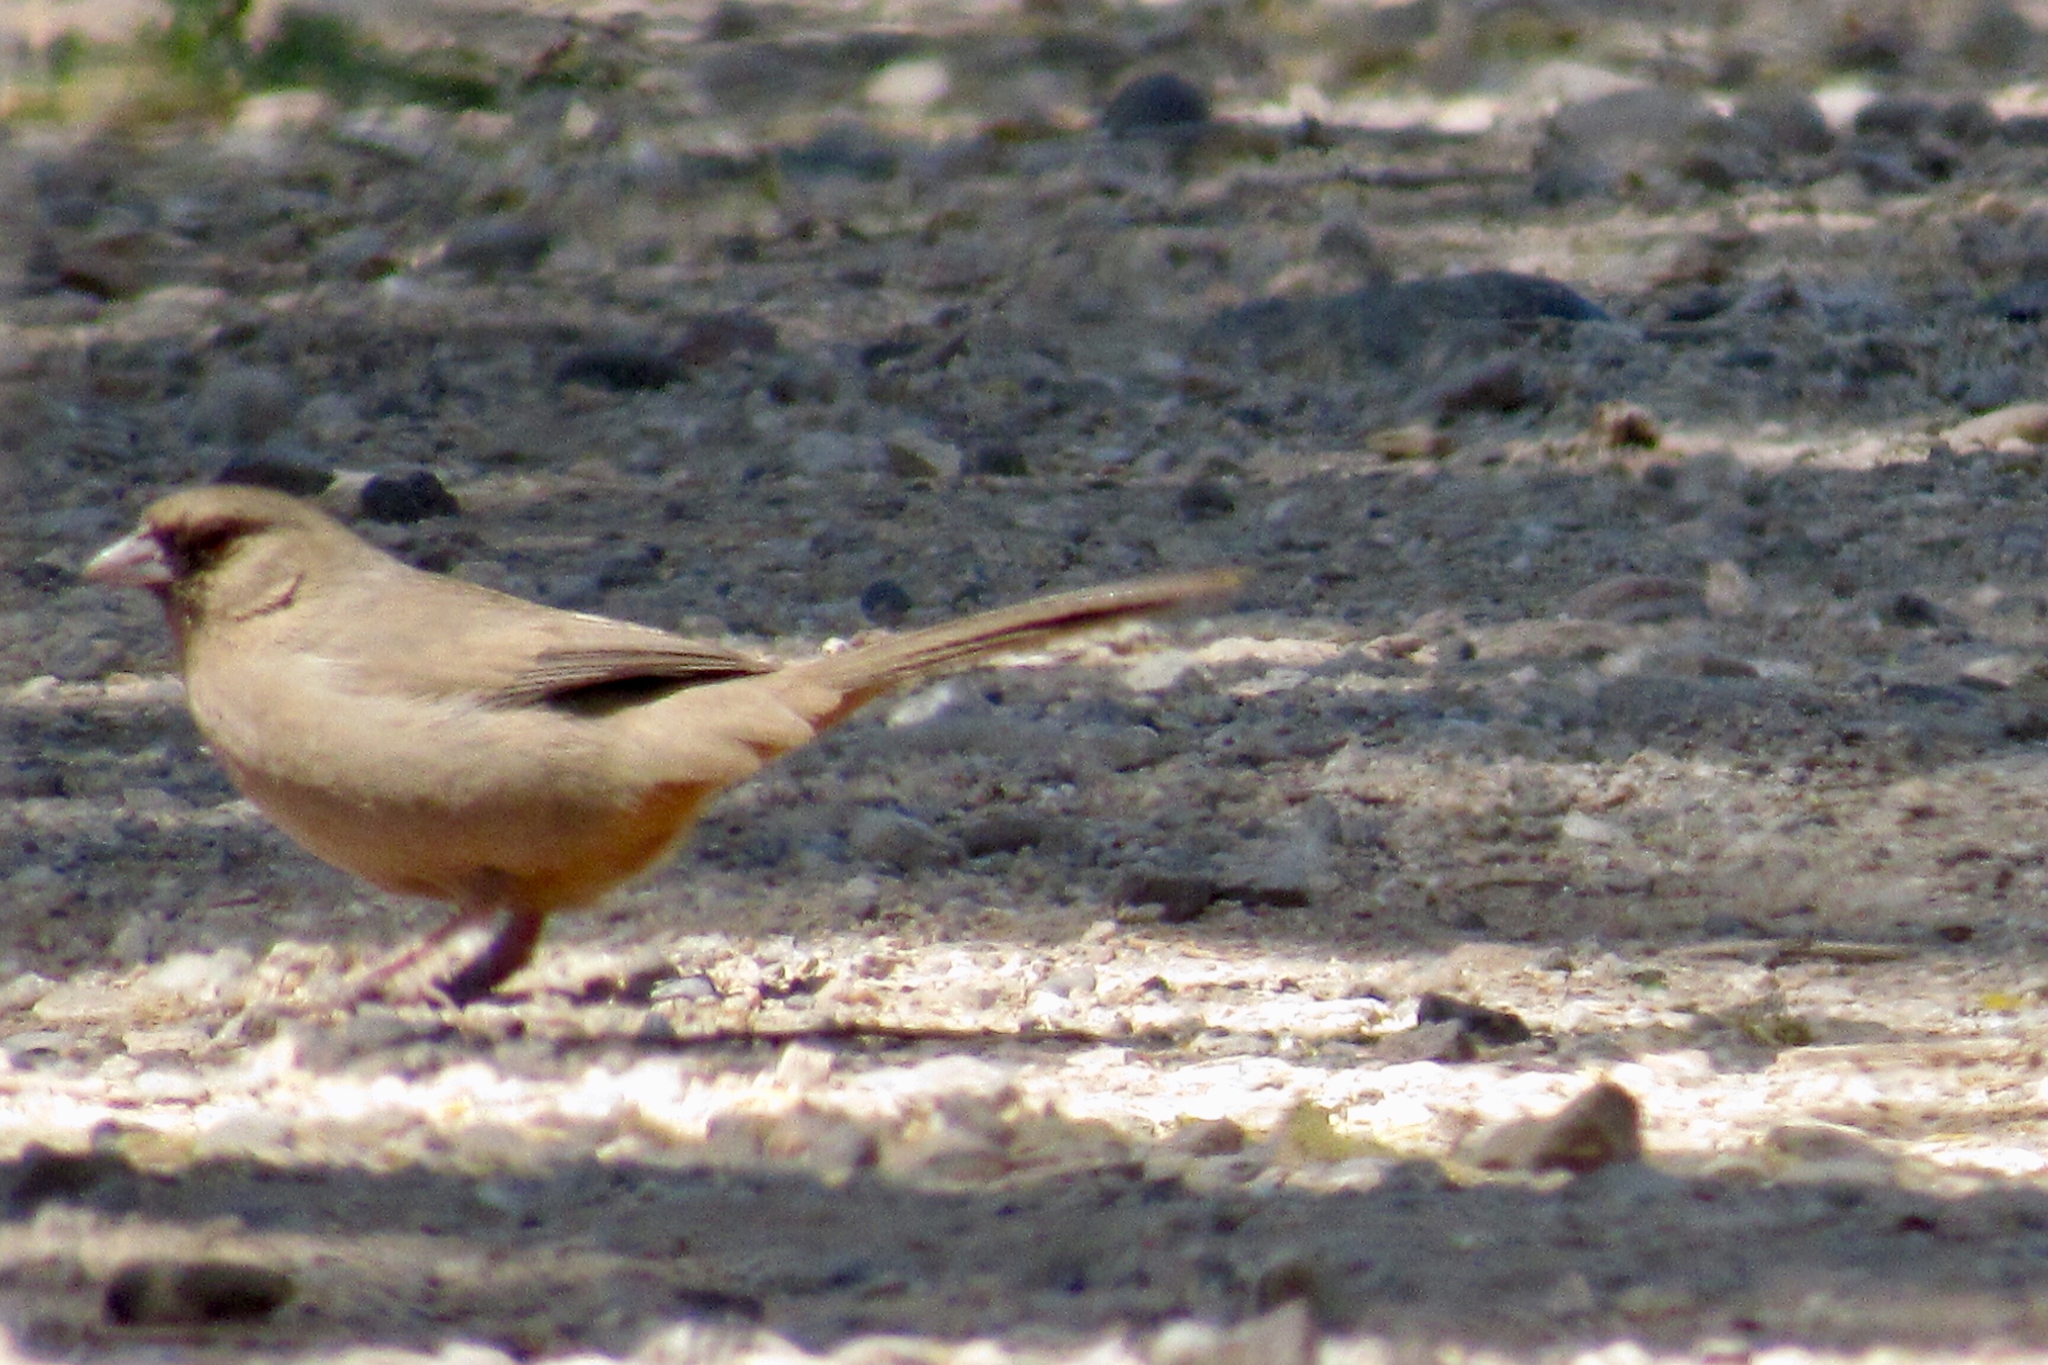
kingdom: Animalia
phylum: Chordata
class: Aves
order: Passeriformes
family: Passerellidae
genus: Melozone
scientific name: Melozone aberti
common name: Abert's towhee
